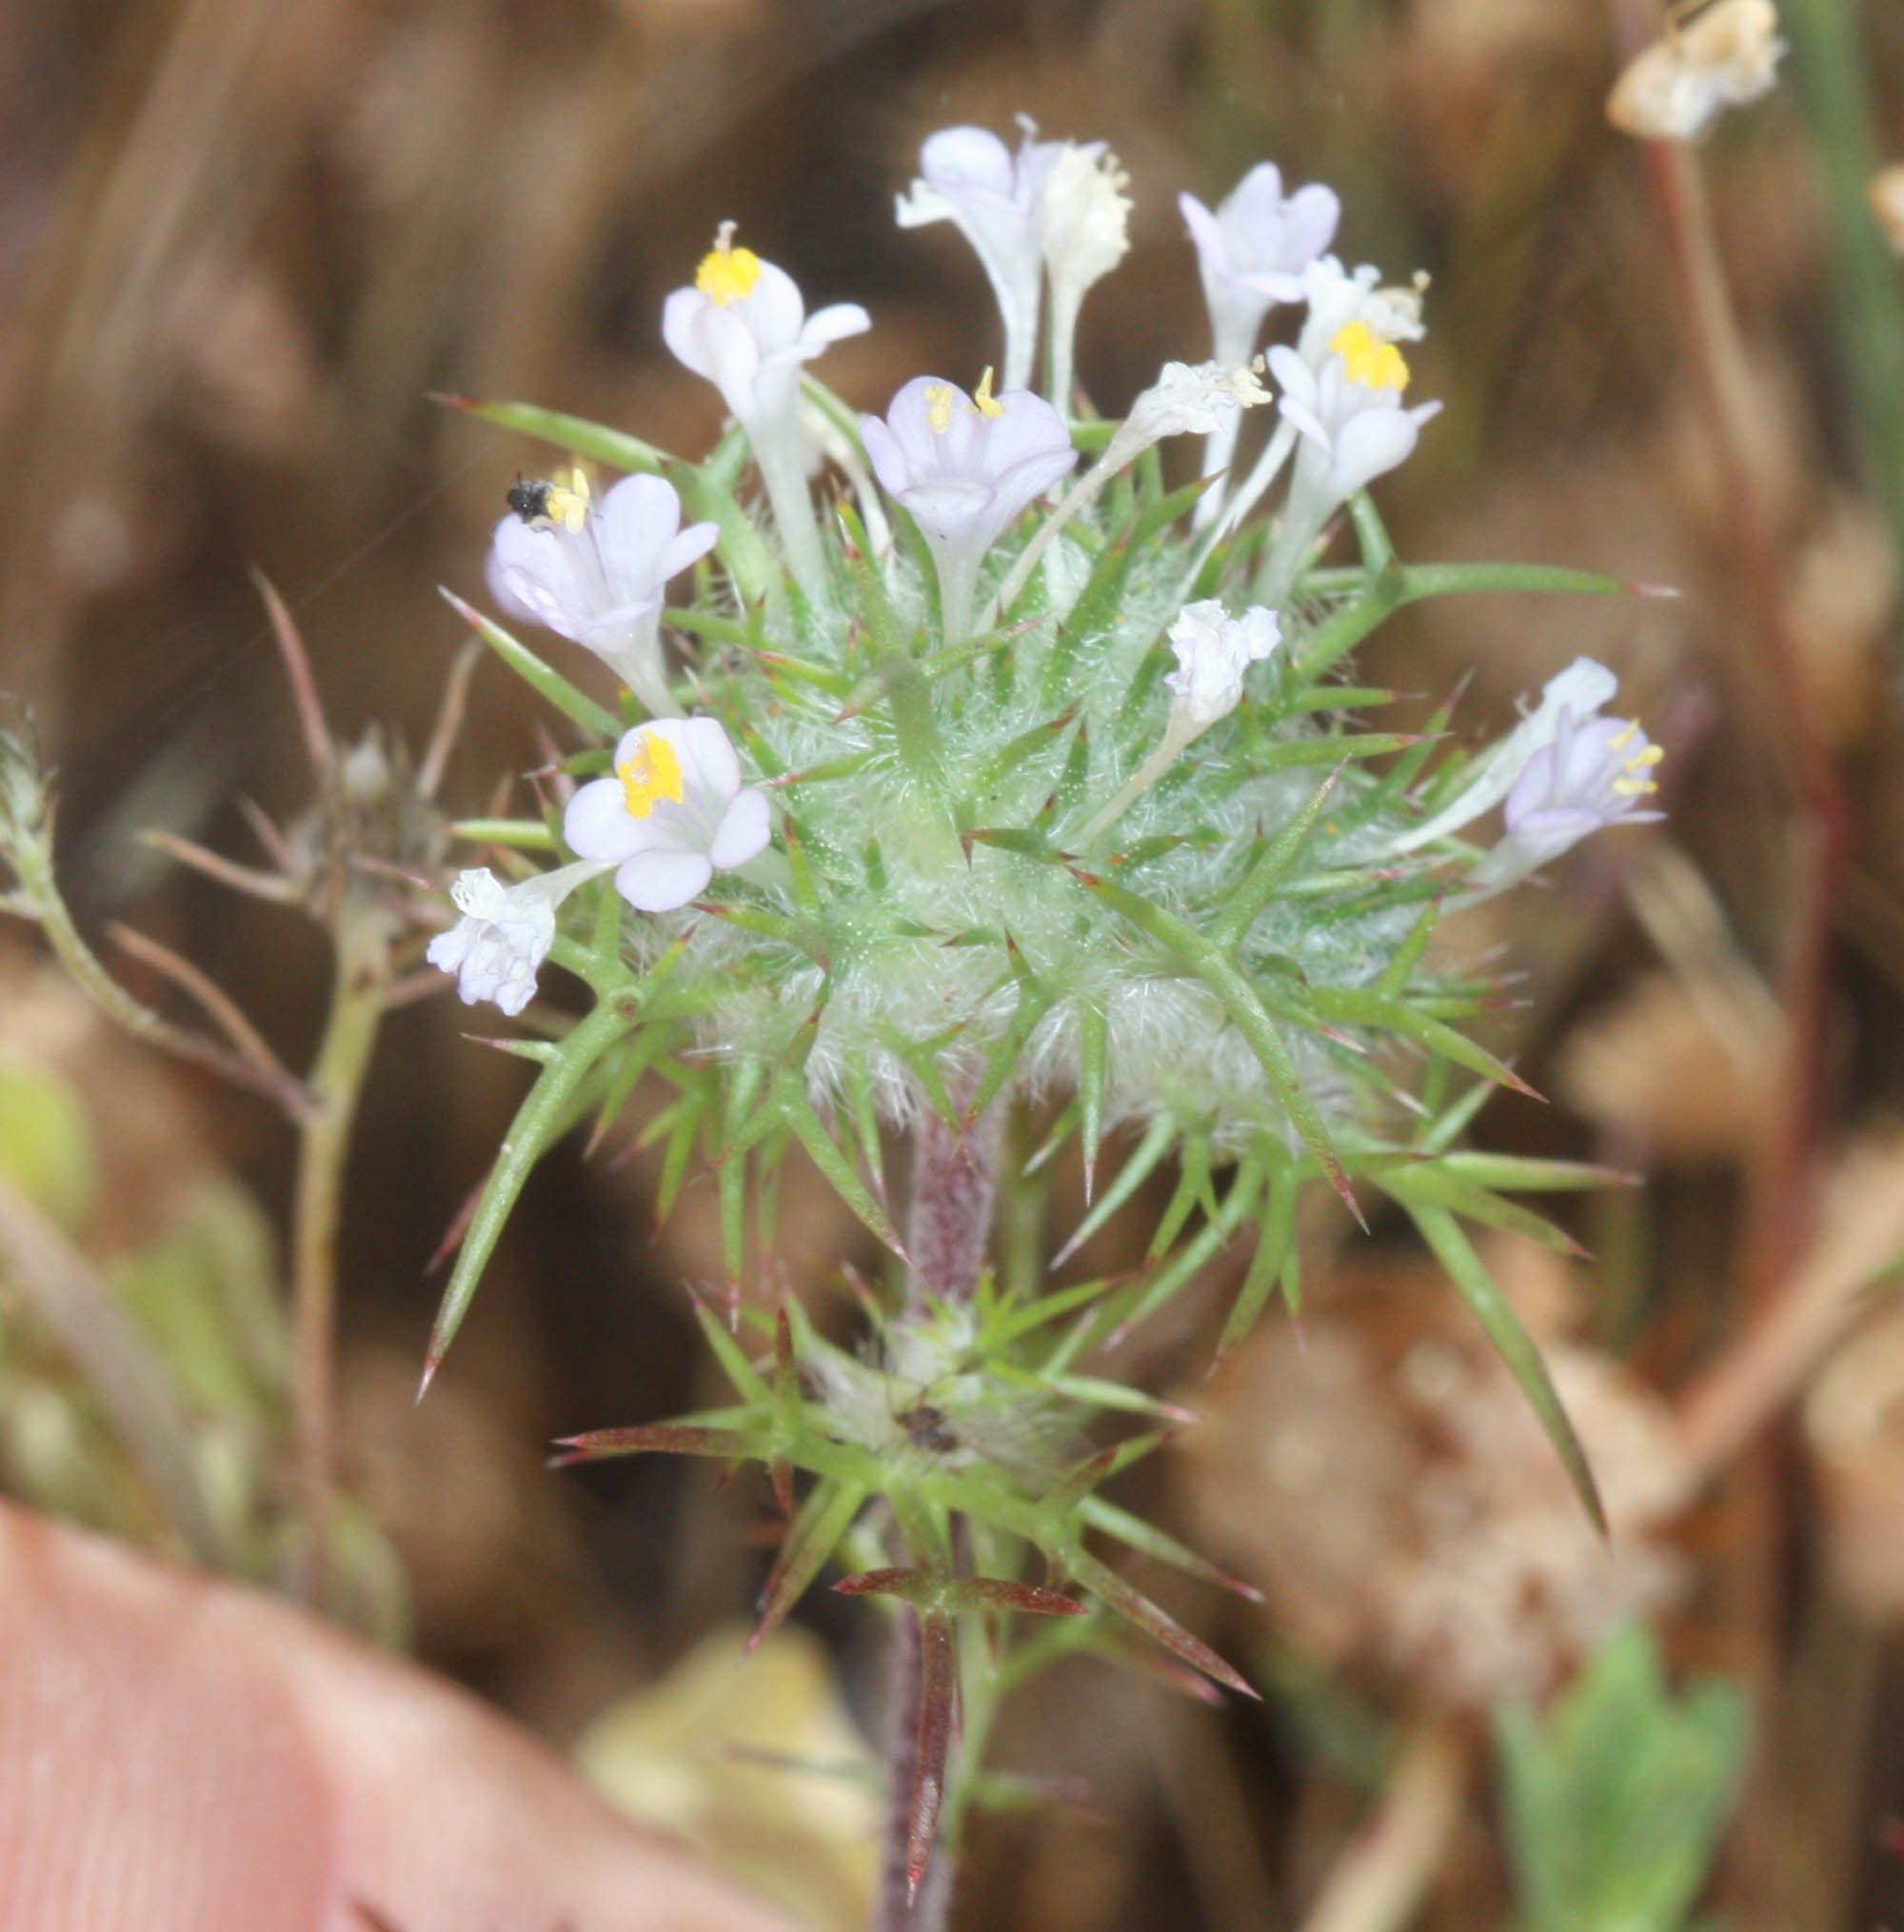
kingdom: Plantae
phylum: Tracheophyta
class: Magnoliopsida
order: Ericales
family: Polemoniaceae
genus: Navarretia
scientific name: Navarretia intertexta
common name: Needle-leaved navarretia
